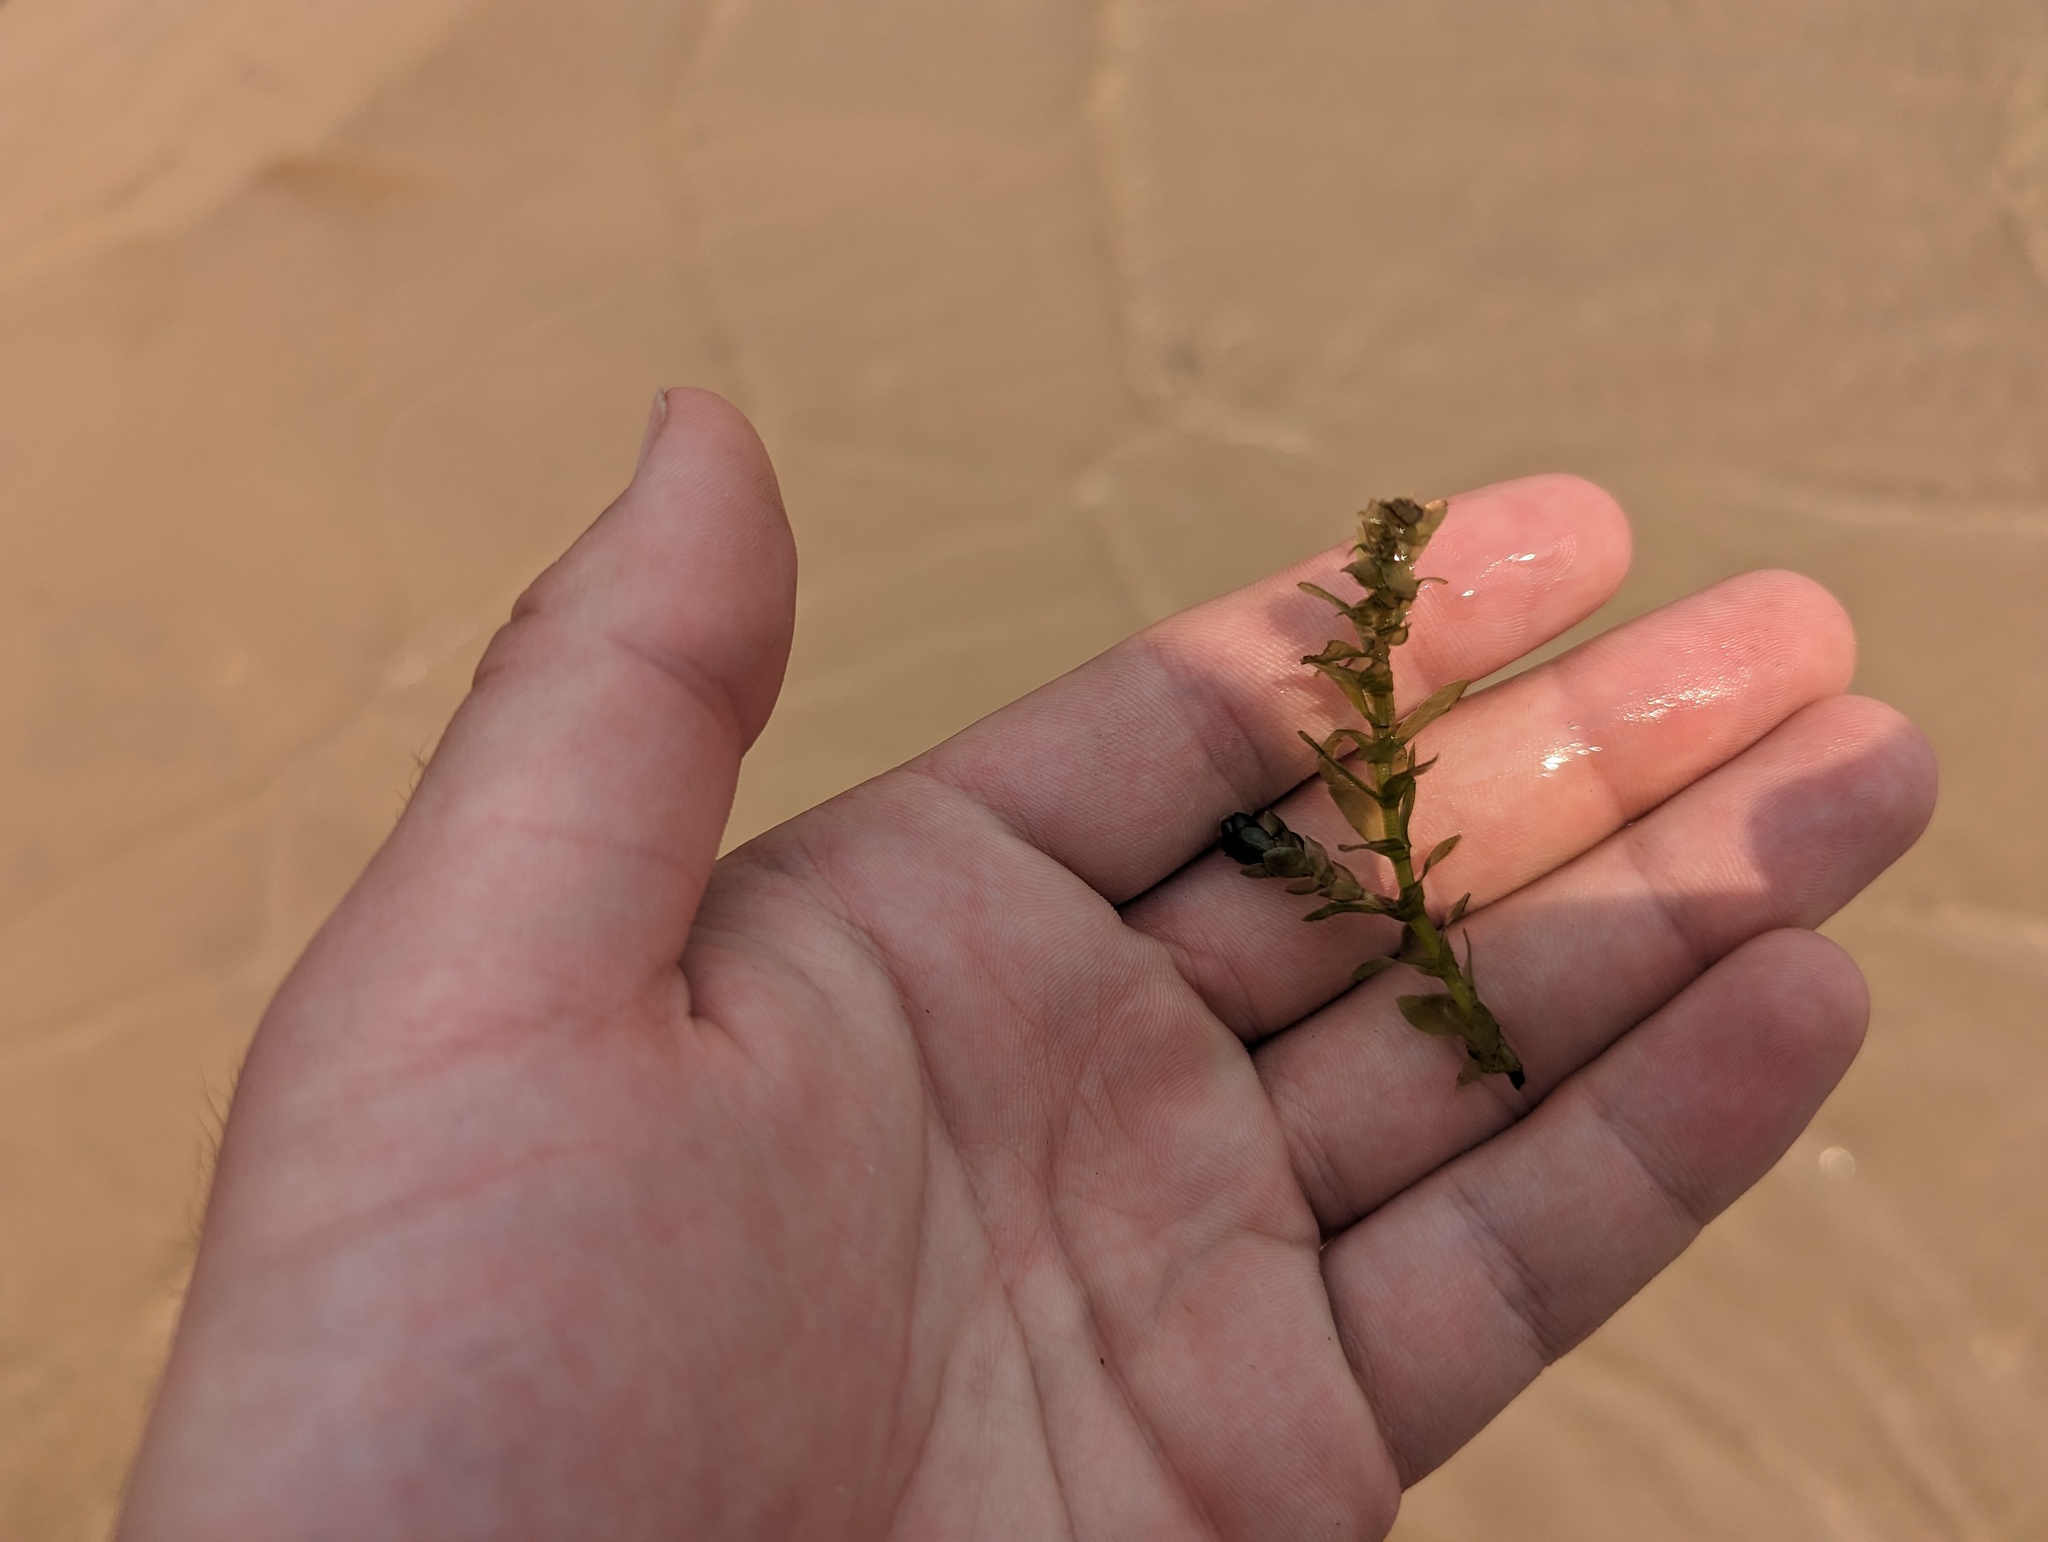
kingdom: Plantae
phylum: Tracheophyta
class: Liliopsida
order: Alismatales
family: Hydrocharitaceae
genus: Elodea
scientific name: Elodea canadensis
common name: Canadian waterweed
